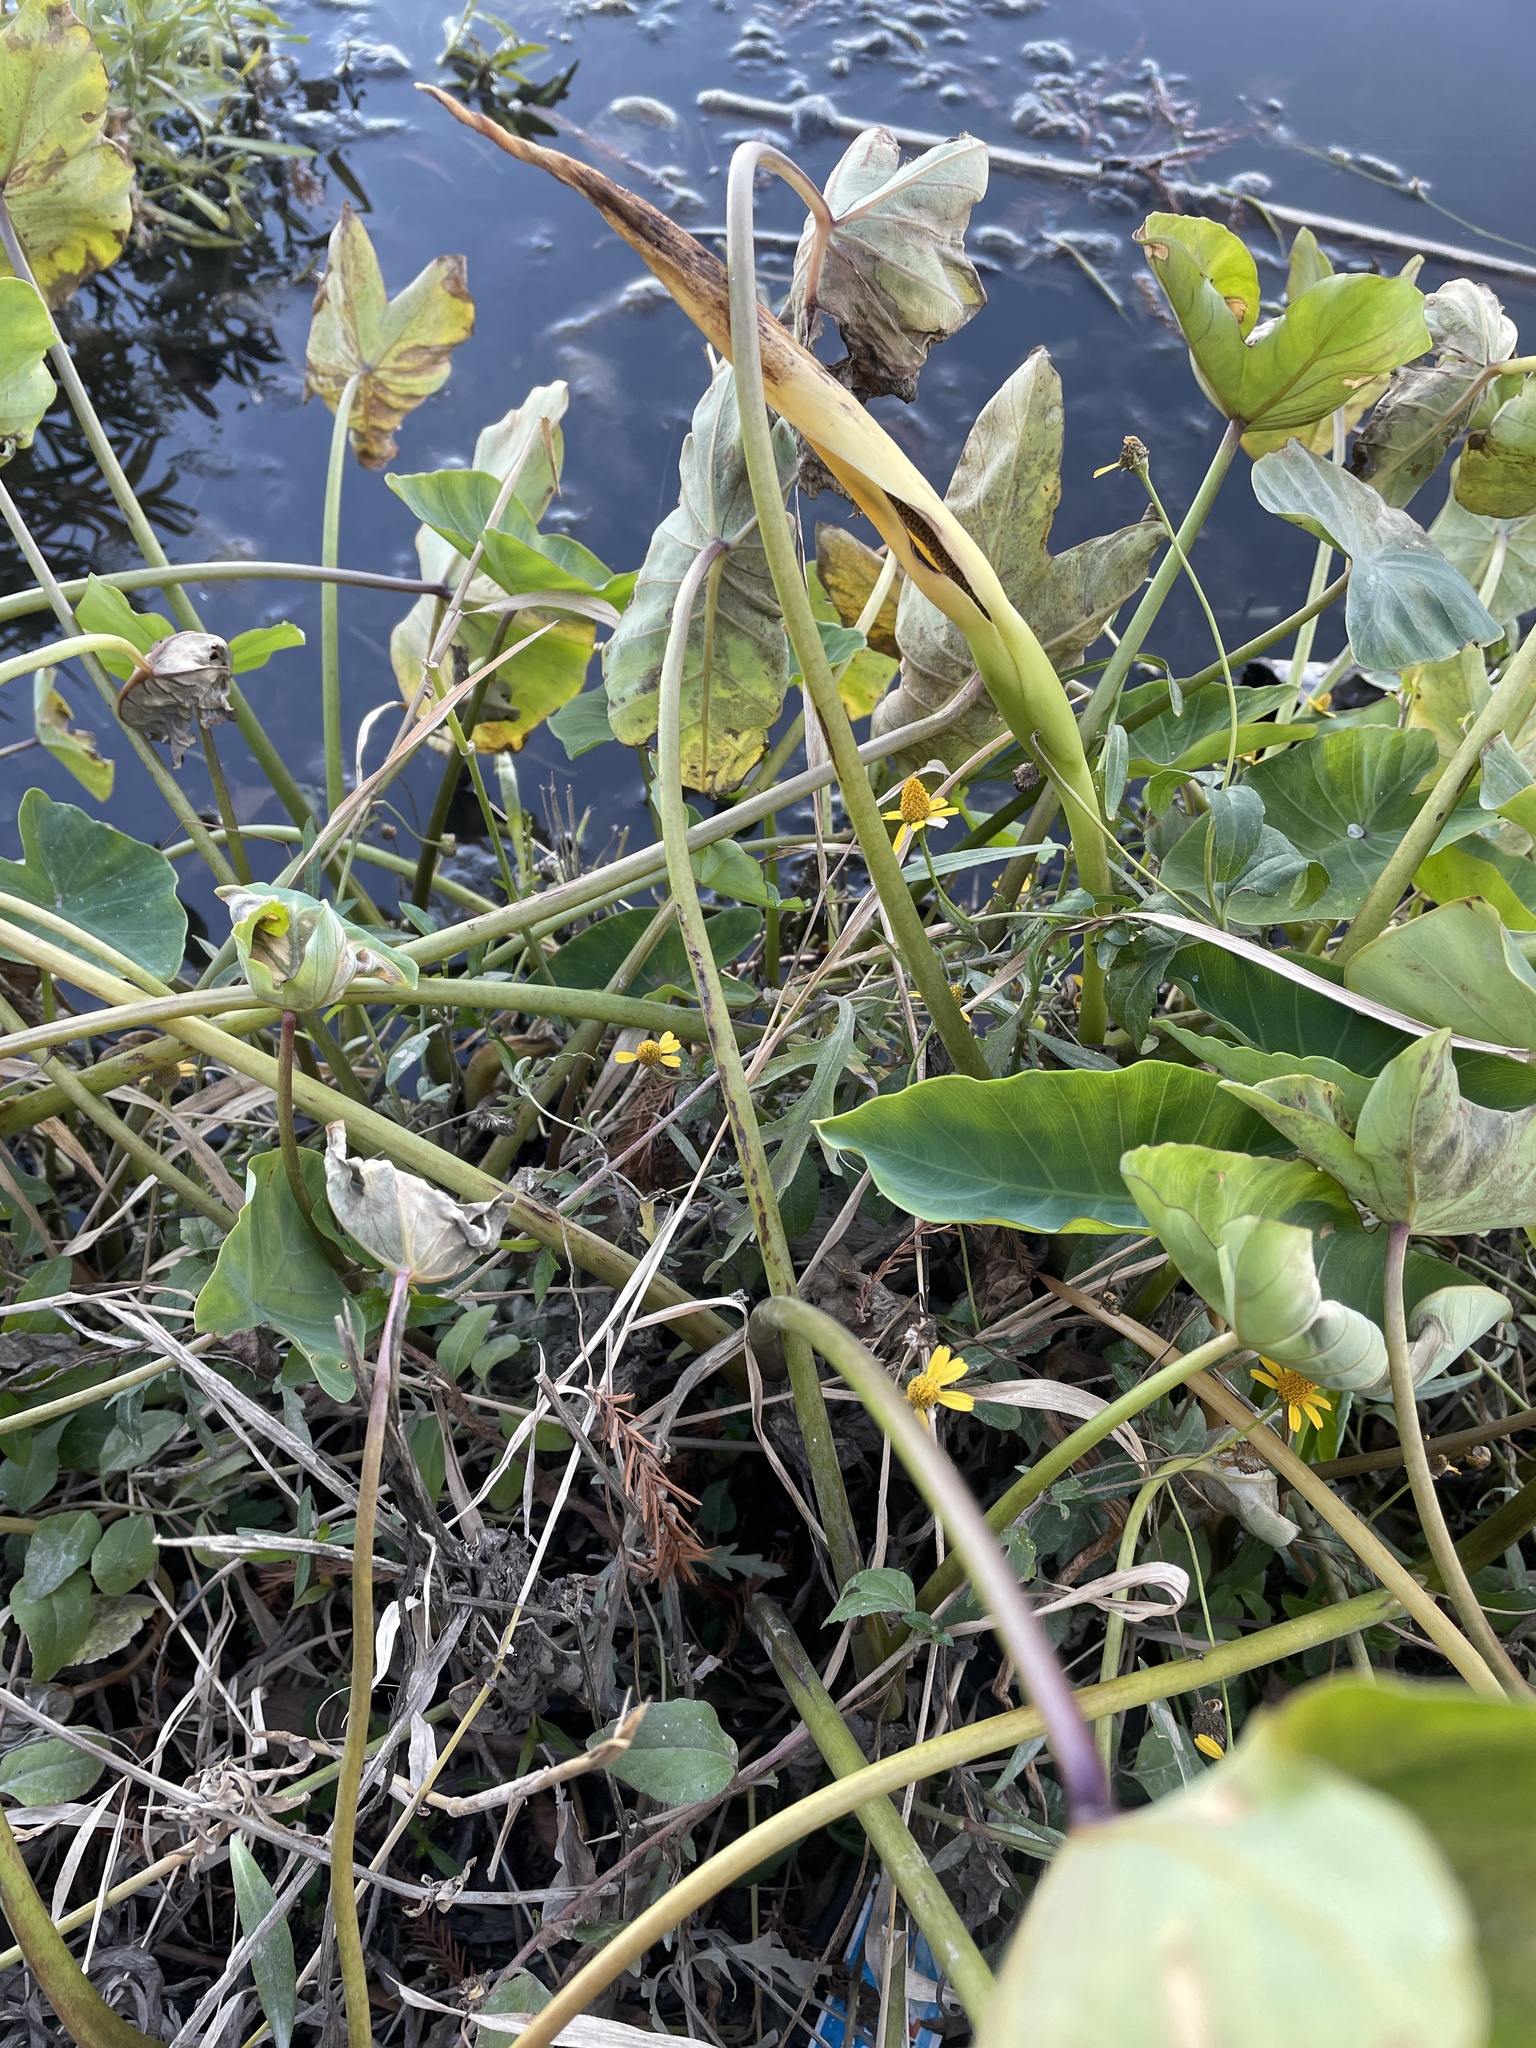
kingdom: Plantae
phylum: Tracheophyta
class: Magnoliopsida
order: Asterales
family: Asteraceae
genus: Acmella
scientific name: Acmella repens
